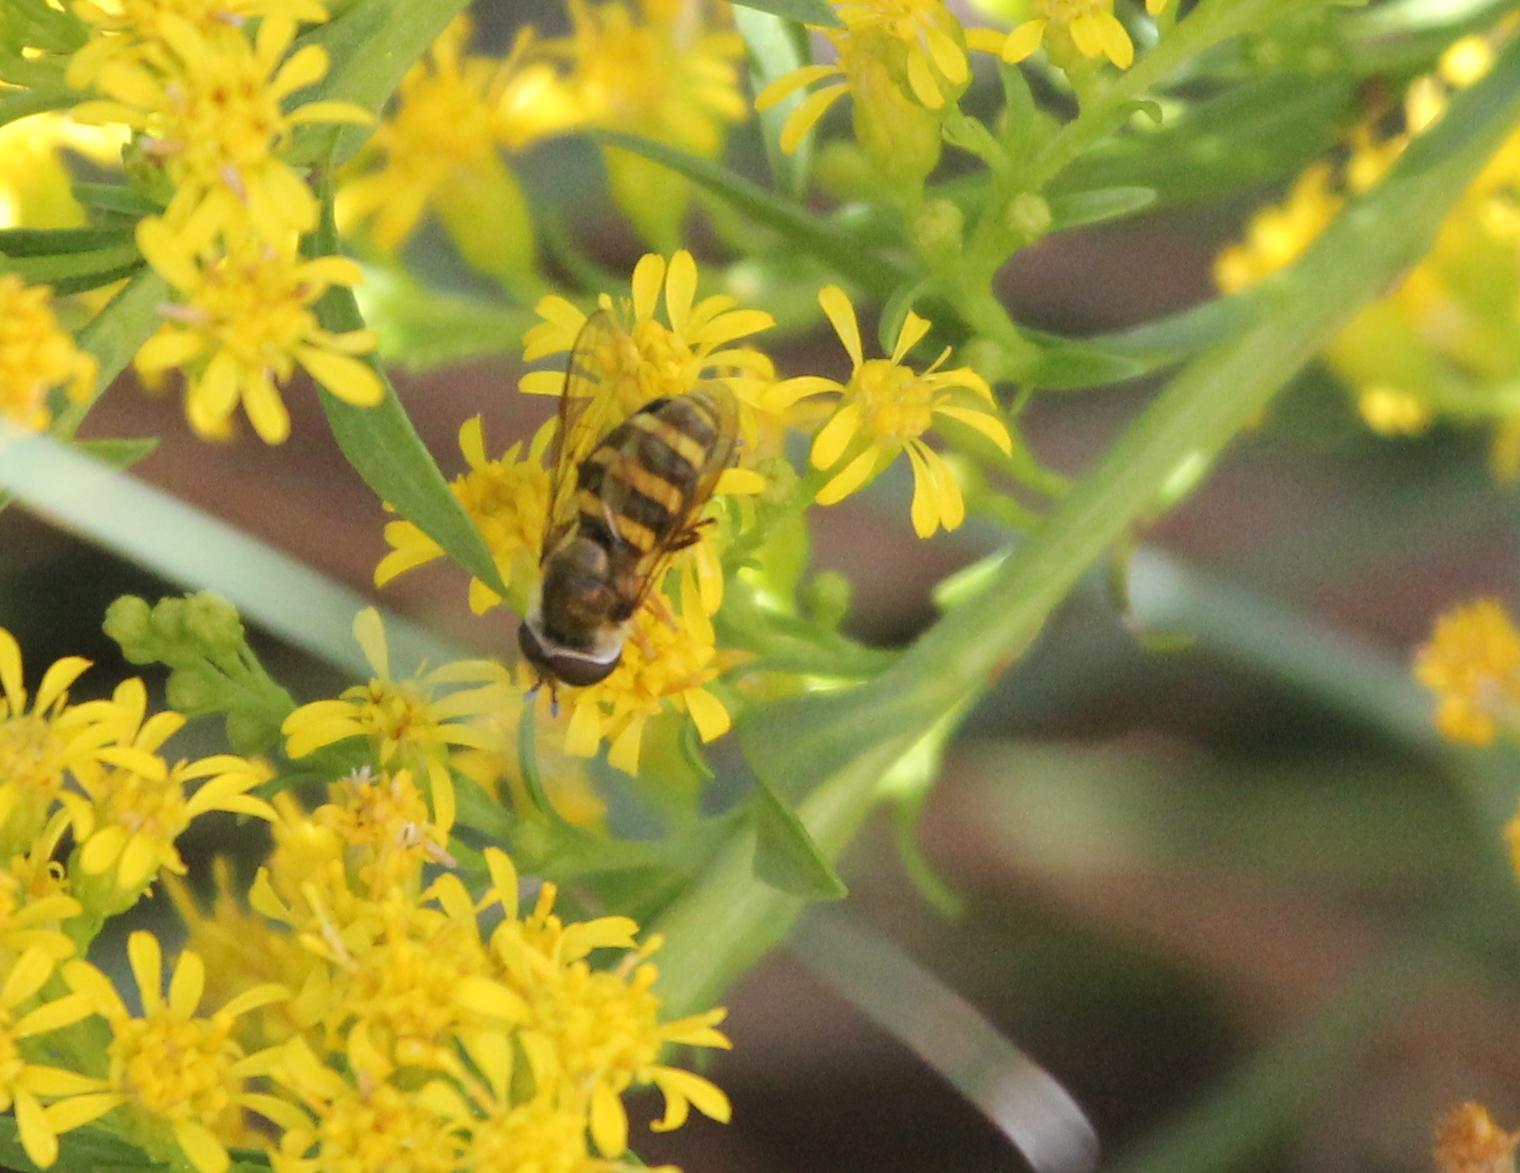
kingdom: Animalia
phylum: Arthropoda
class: Insecta
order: Diptera
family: Syrphidae
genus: Eupeodes
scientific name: Eupeodes
